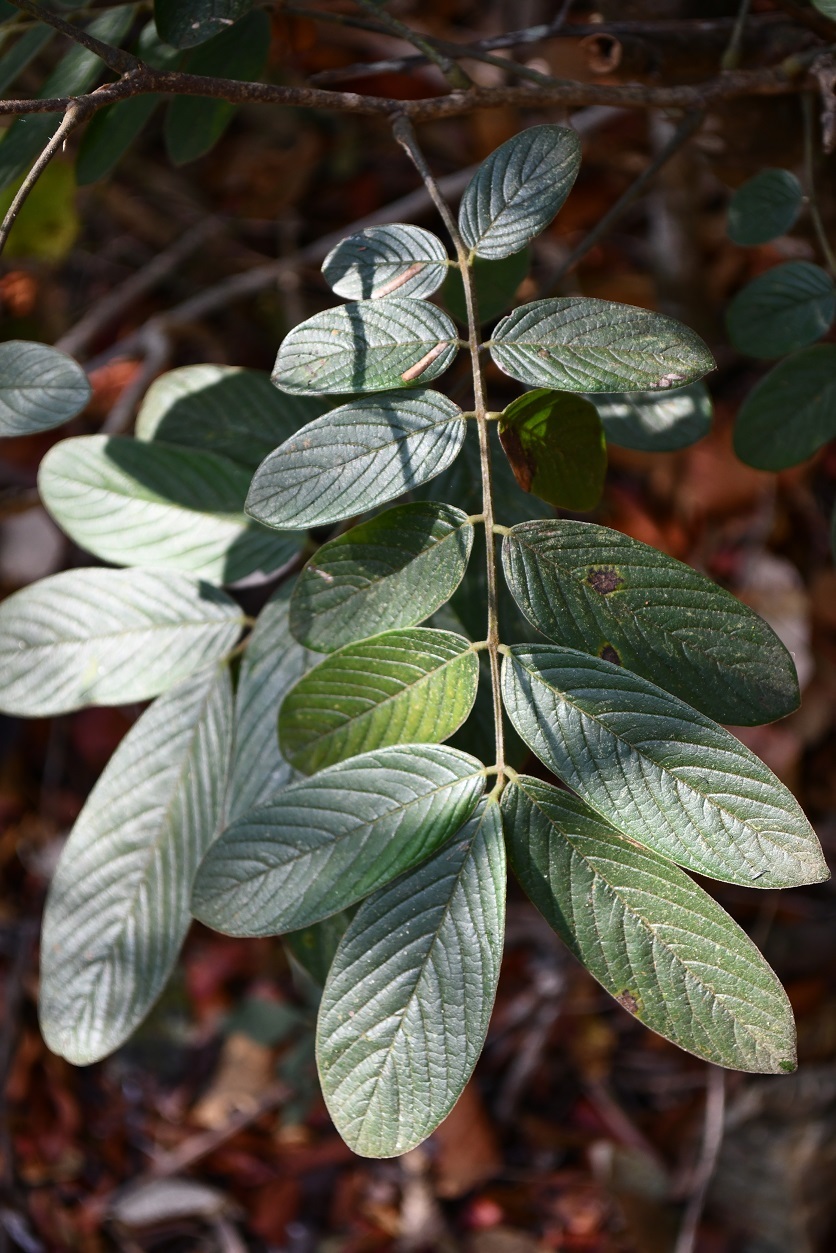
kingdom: Plantae
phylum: Tracheophyta
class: Magnoliopsida
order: Fabales
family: Fabaceae
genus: Lonchocarpus
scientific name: Lonchocarpus rugosus
